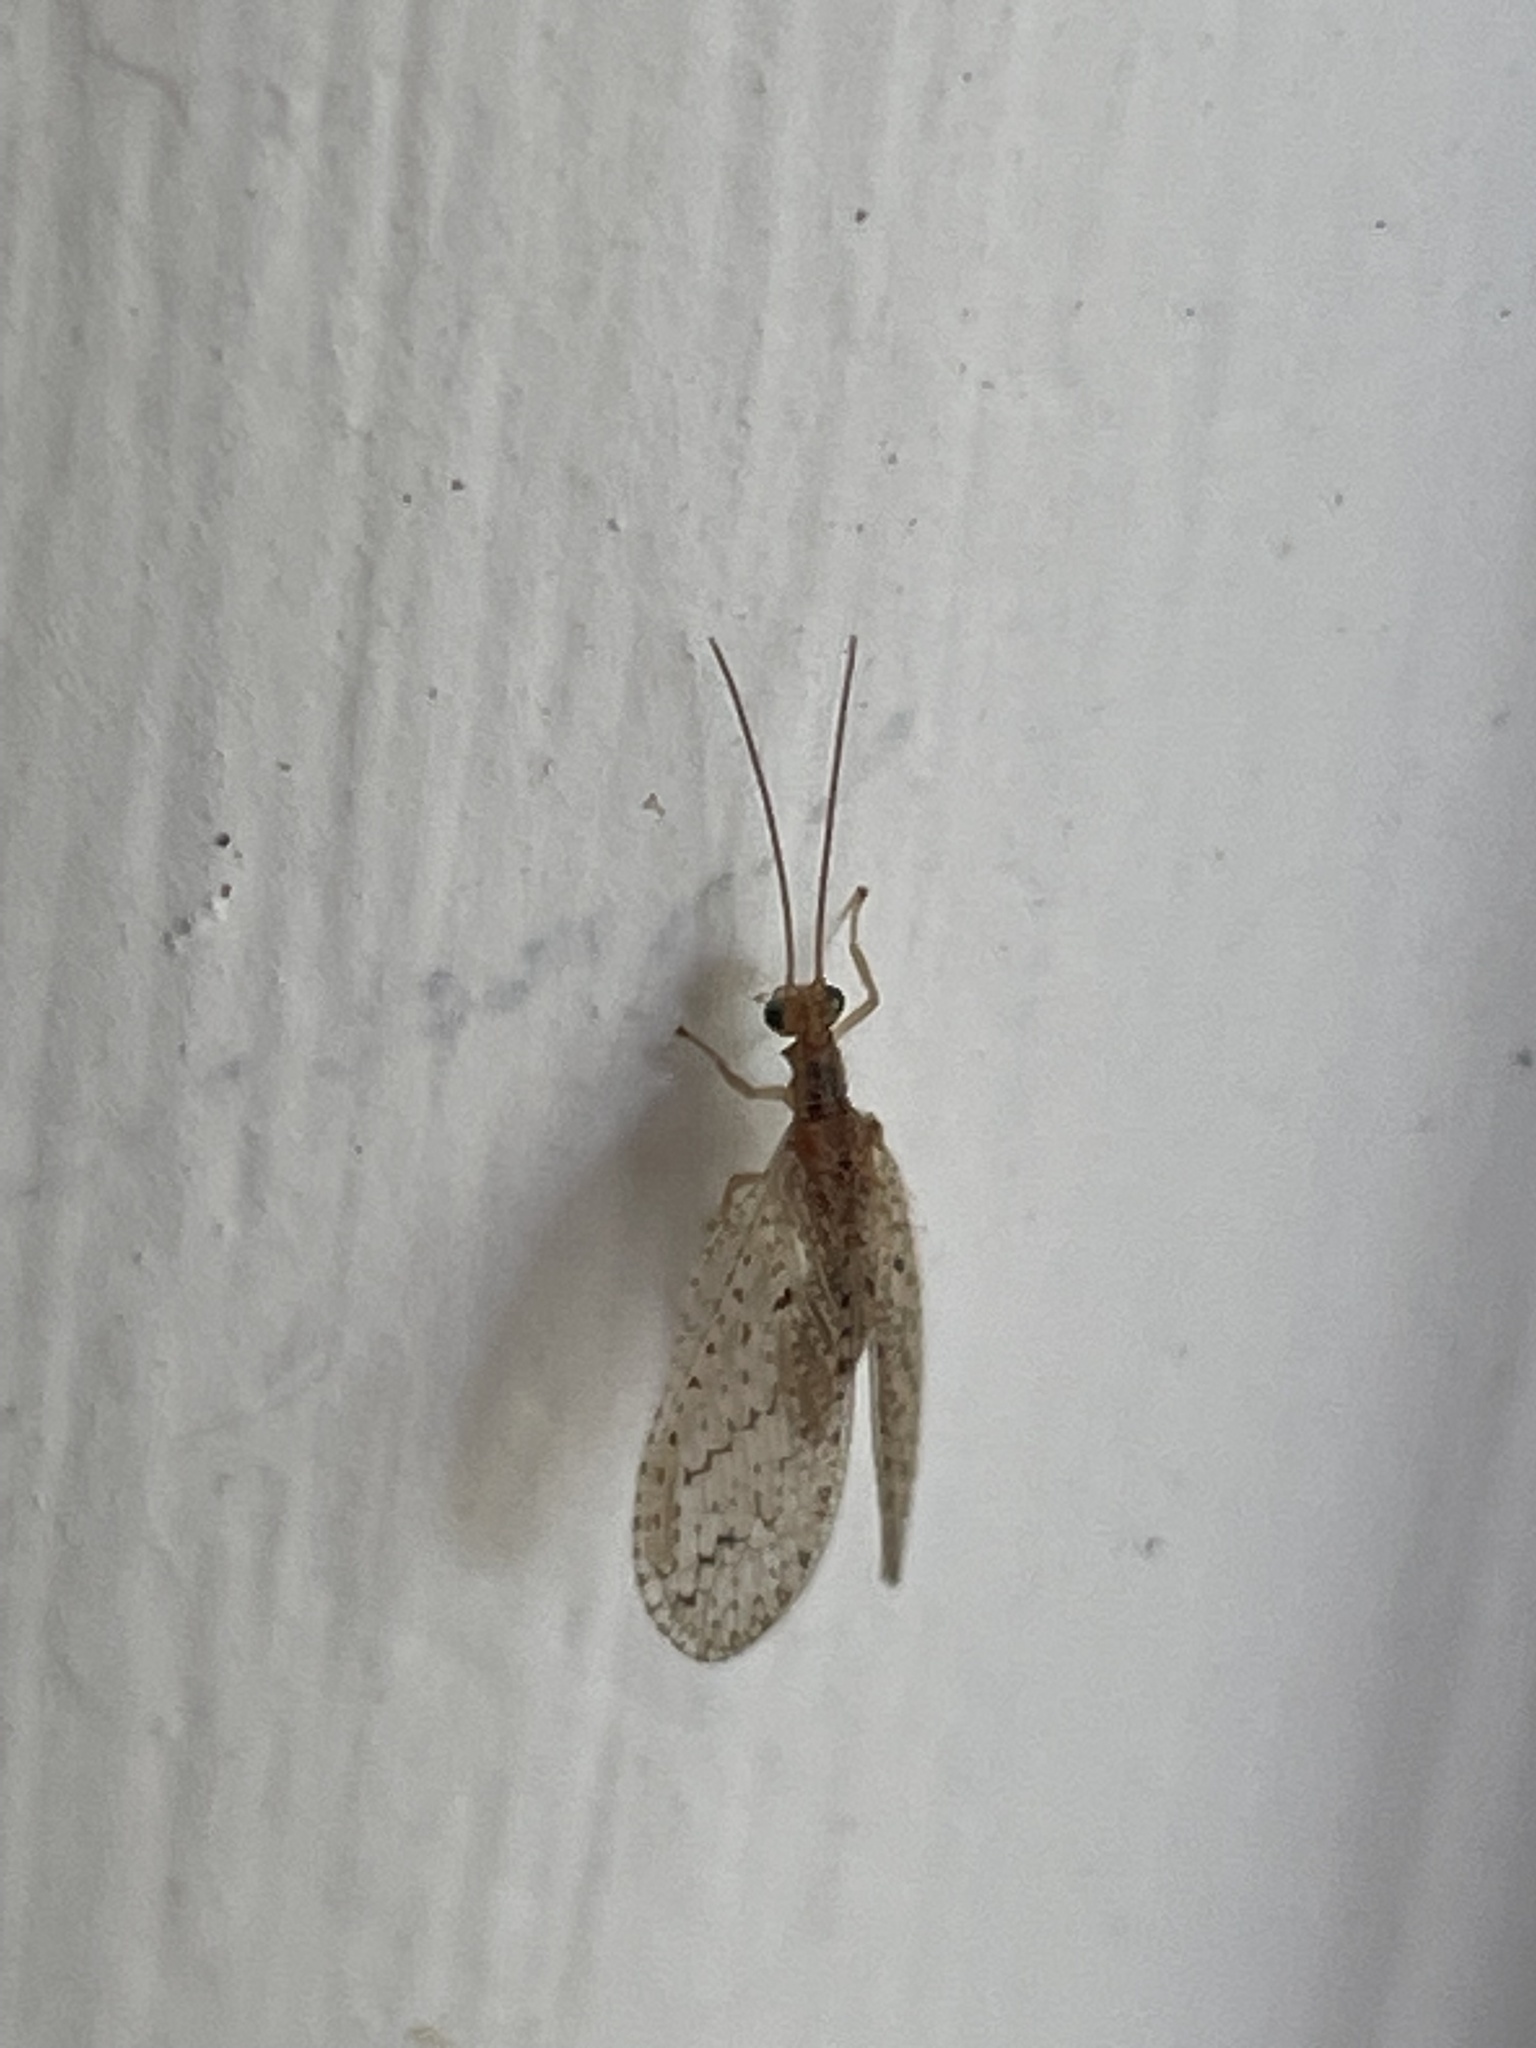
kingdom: Animalia
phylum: Arthropoda
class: Insecta
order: Neuroptera
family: Hemerobiidae
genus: Micromus
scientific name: Micromus tasmaniae
